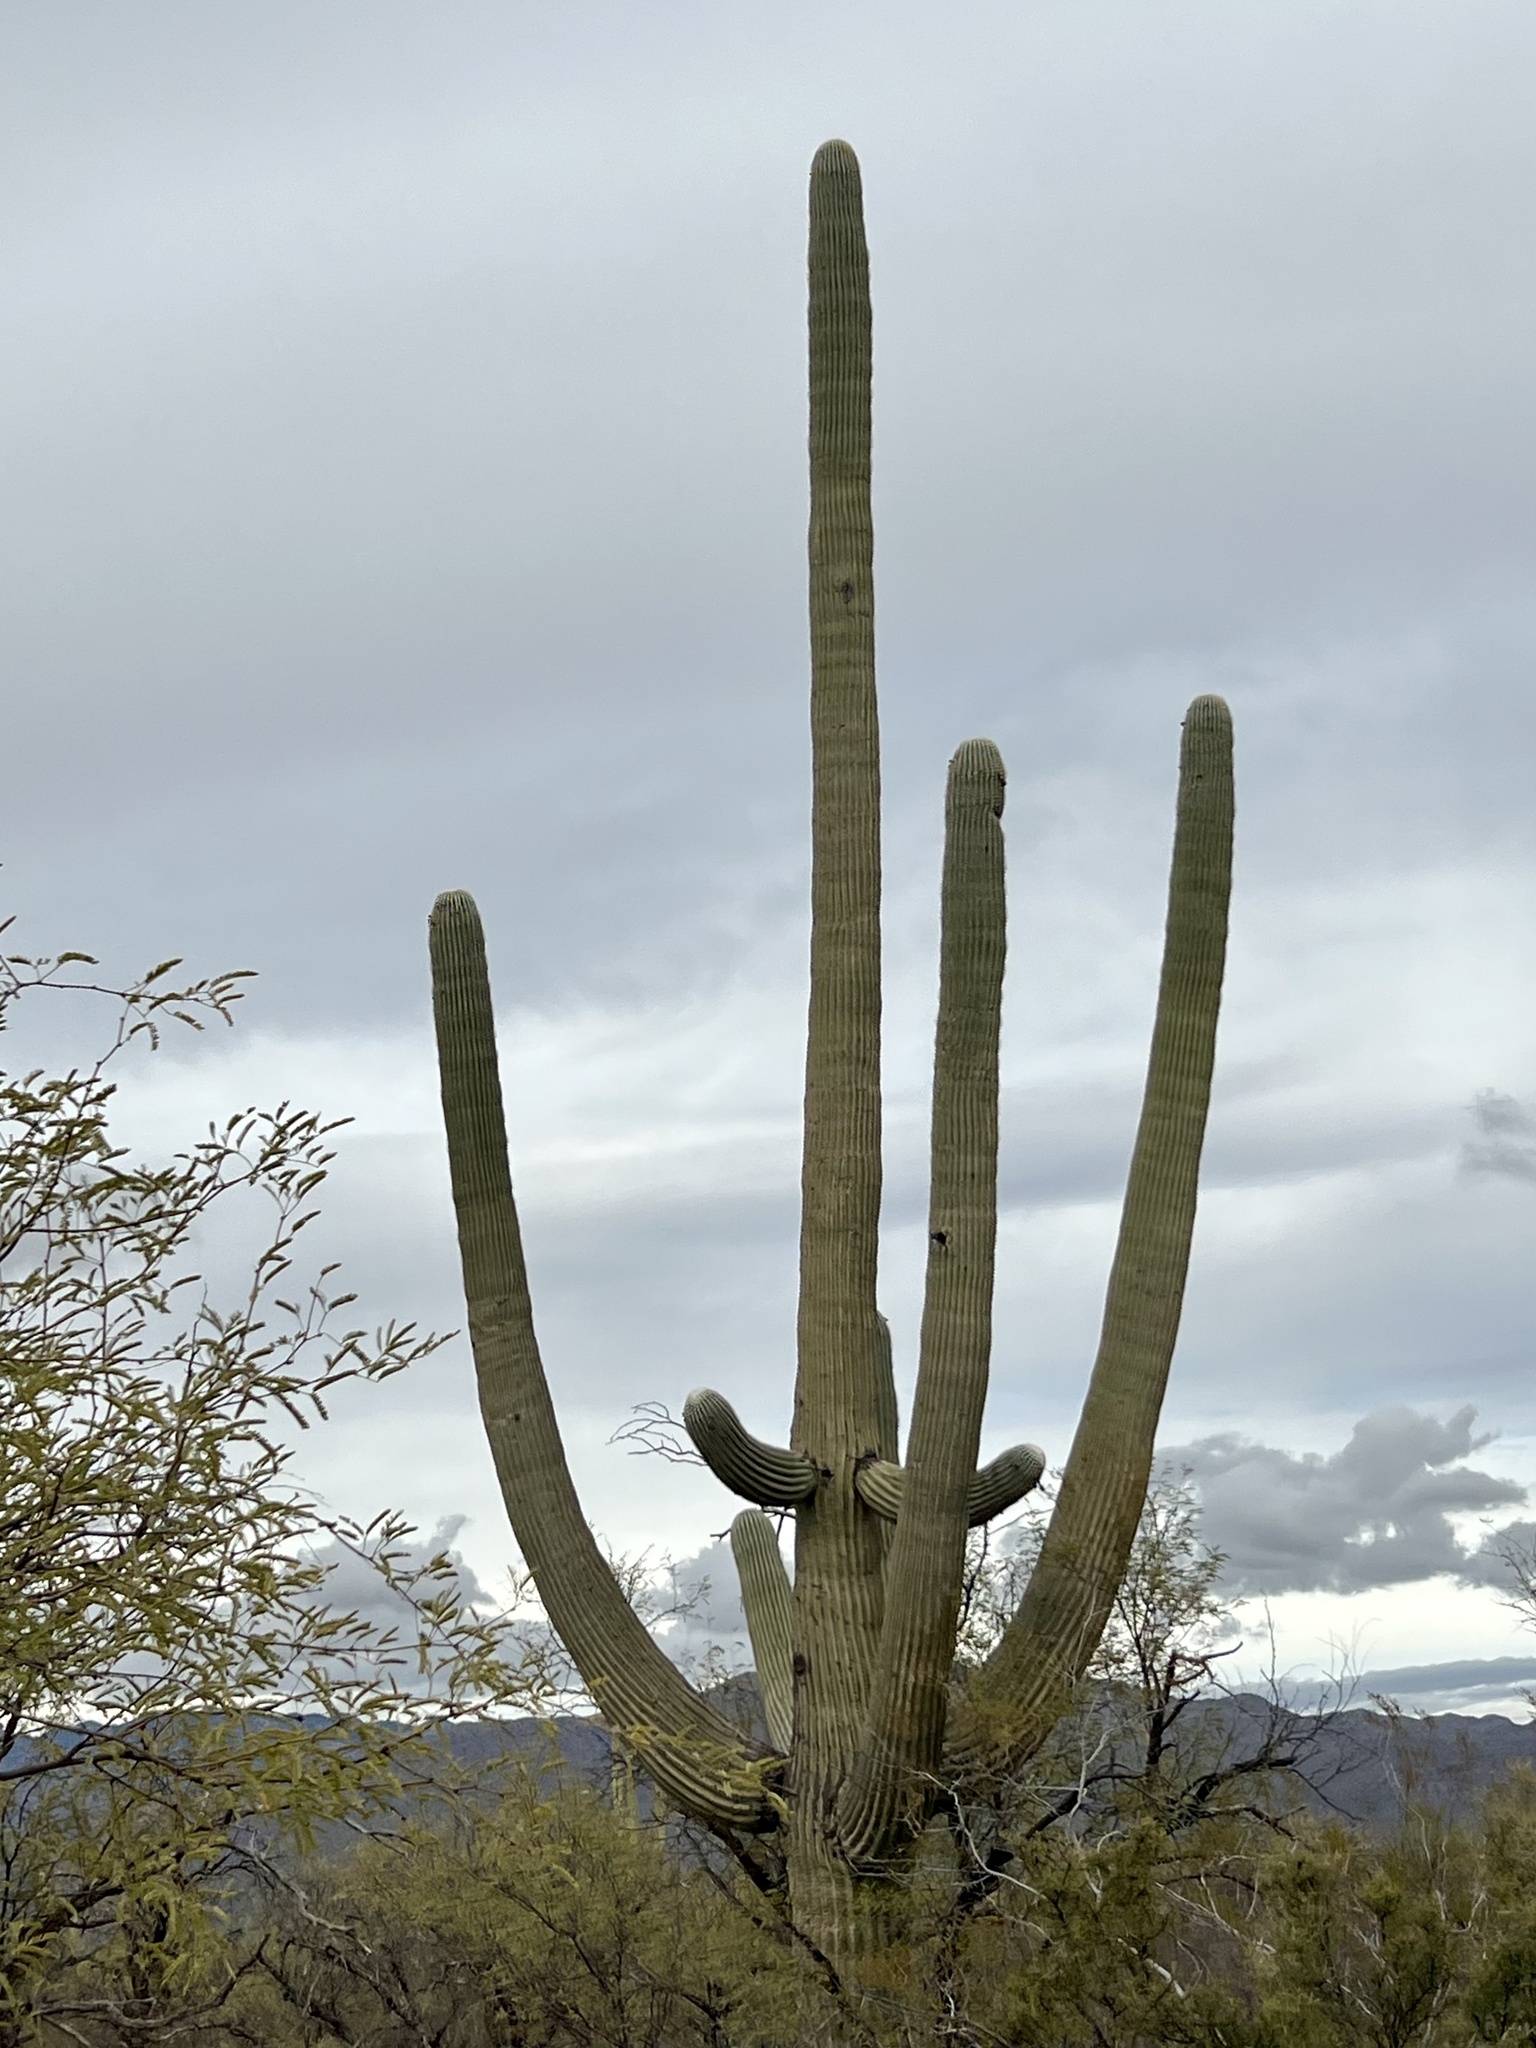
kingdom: Plantae
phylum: Tracheophyta
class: Magnoliopsida
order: Caryophyllales
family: Cactaceae
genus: Carnegiea
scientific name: Carnegiea gigantea
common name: Saguaro
